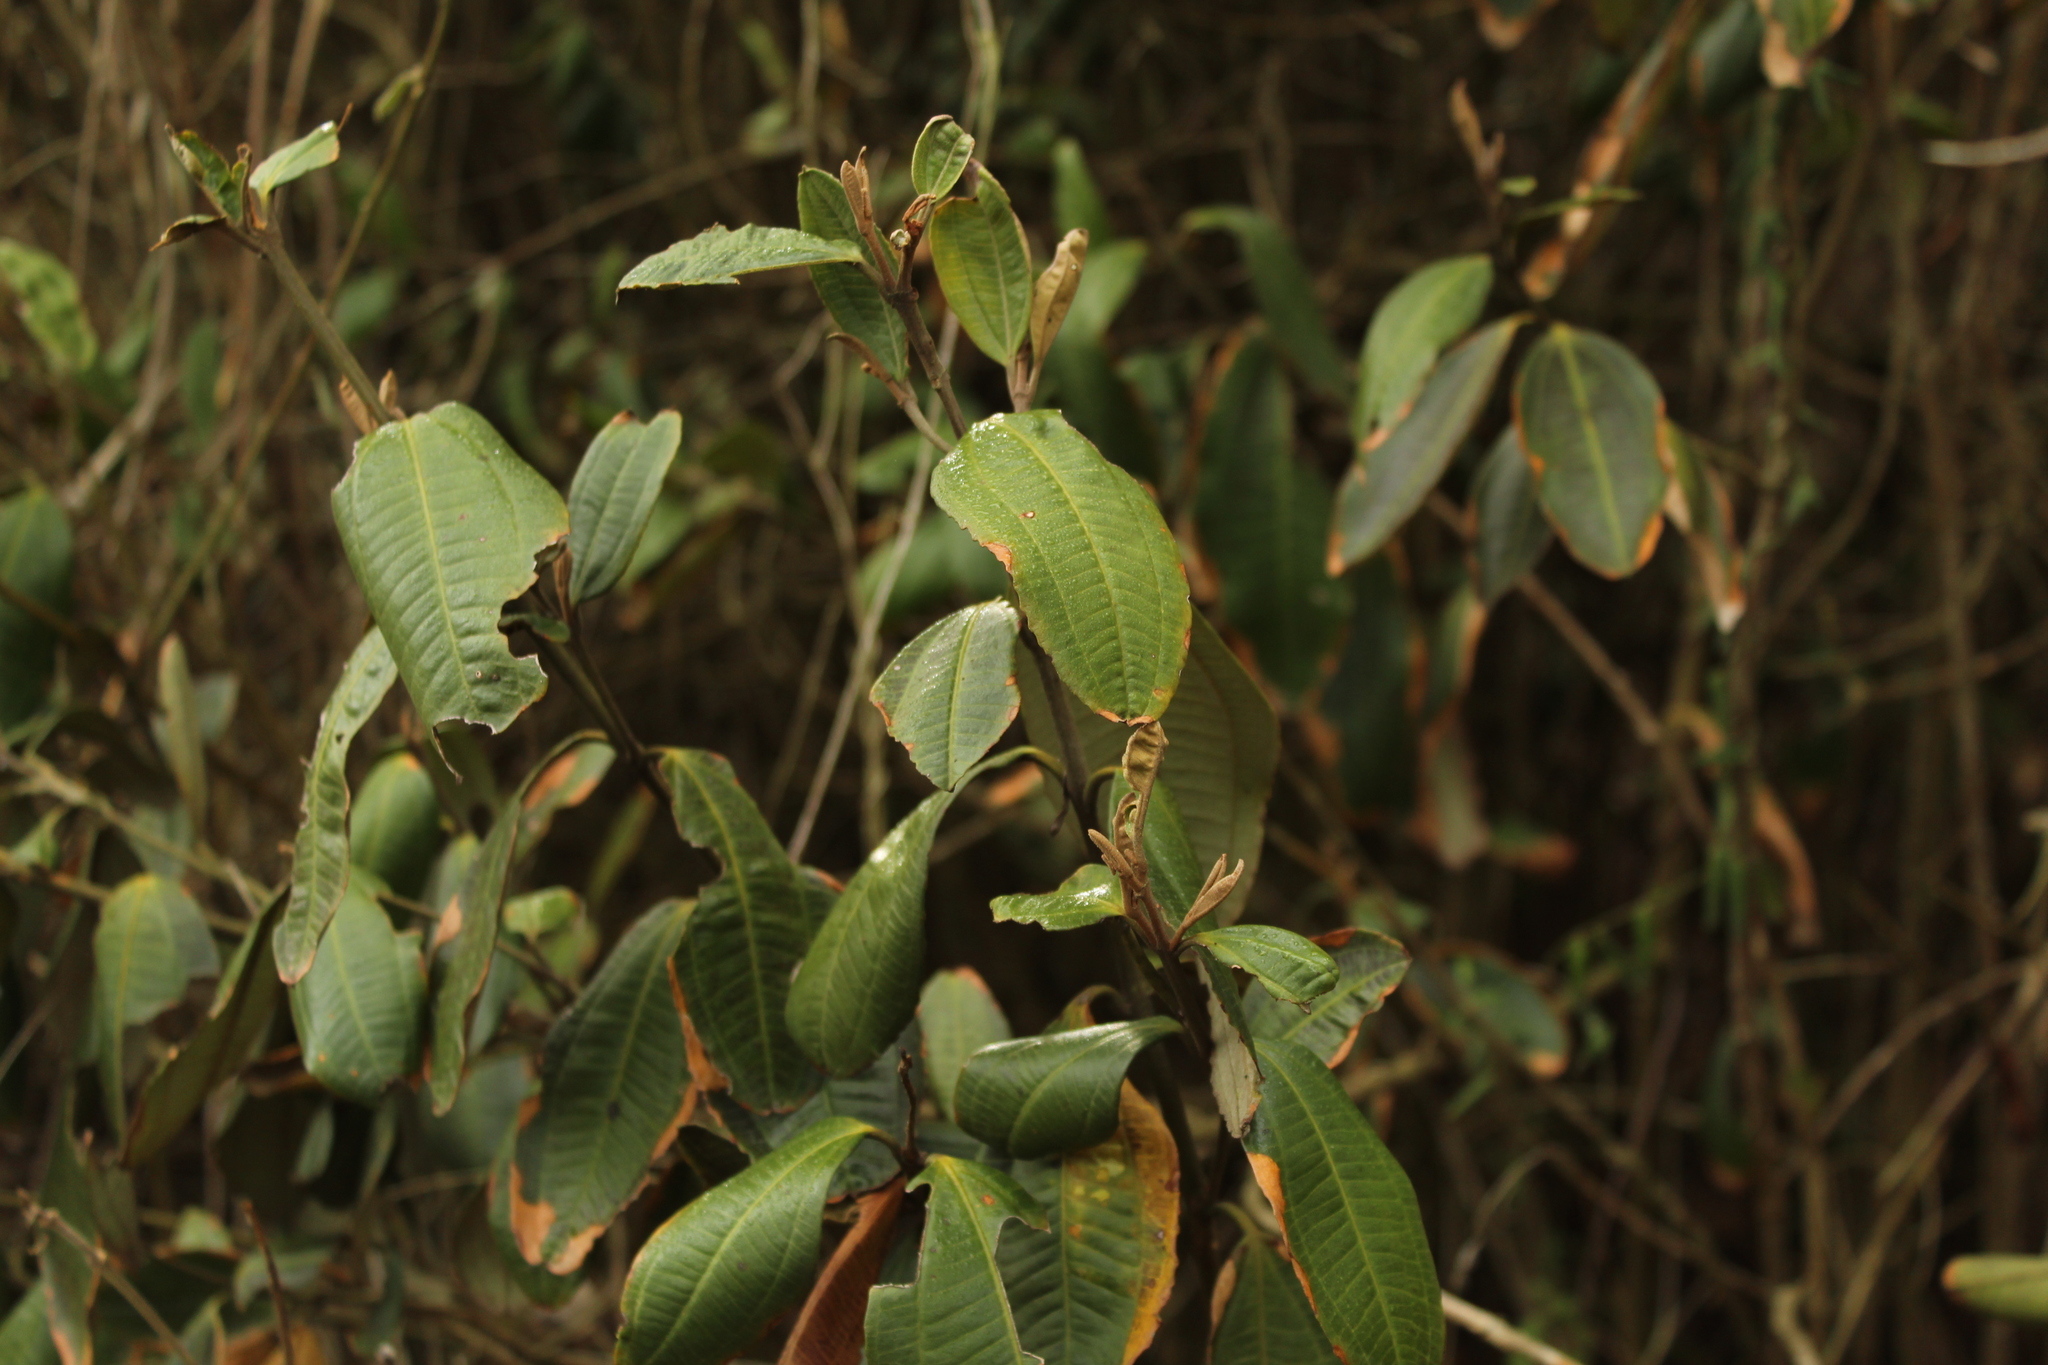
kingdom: Plantae
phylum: Tracheophyta
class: Magnoliopsida
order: Myrtales
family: Melastomataceae
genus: Miconia
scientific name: Miconia squamulosa
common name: Squamulose maya
